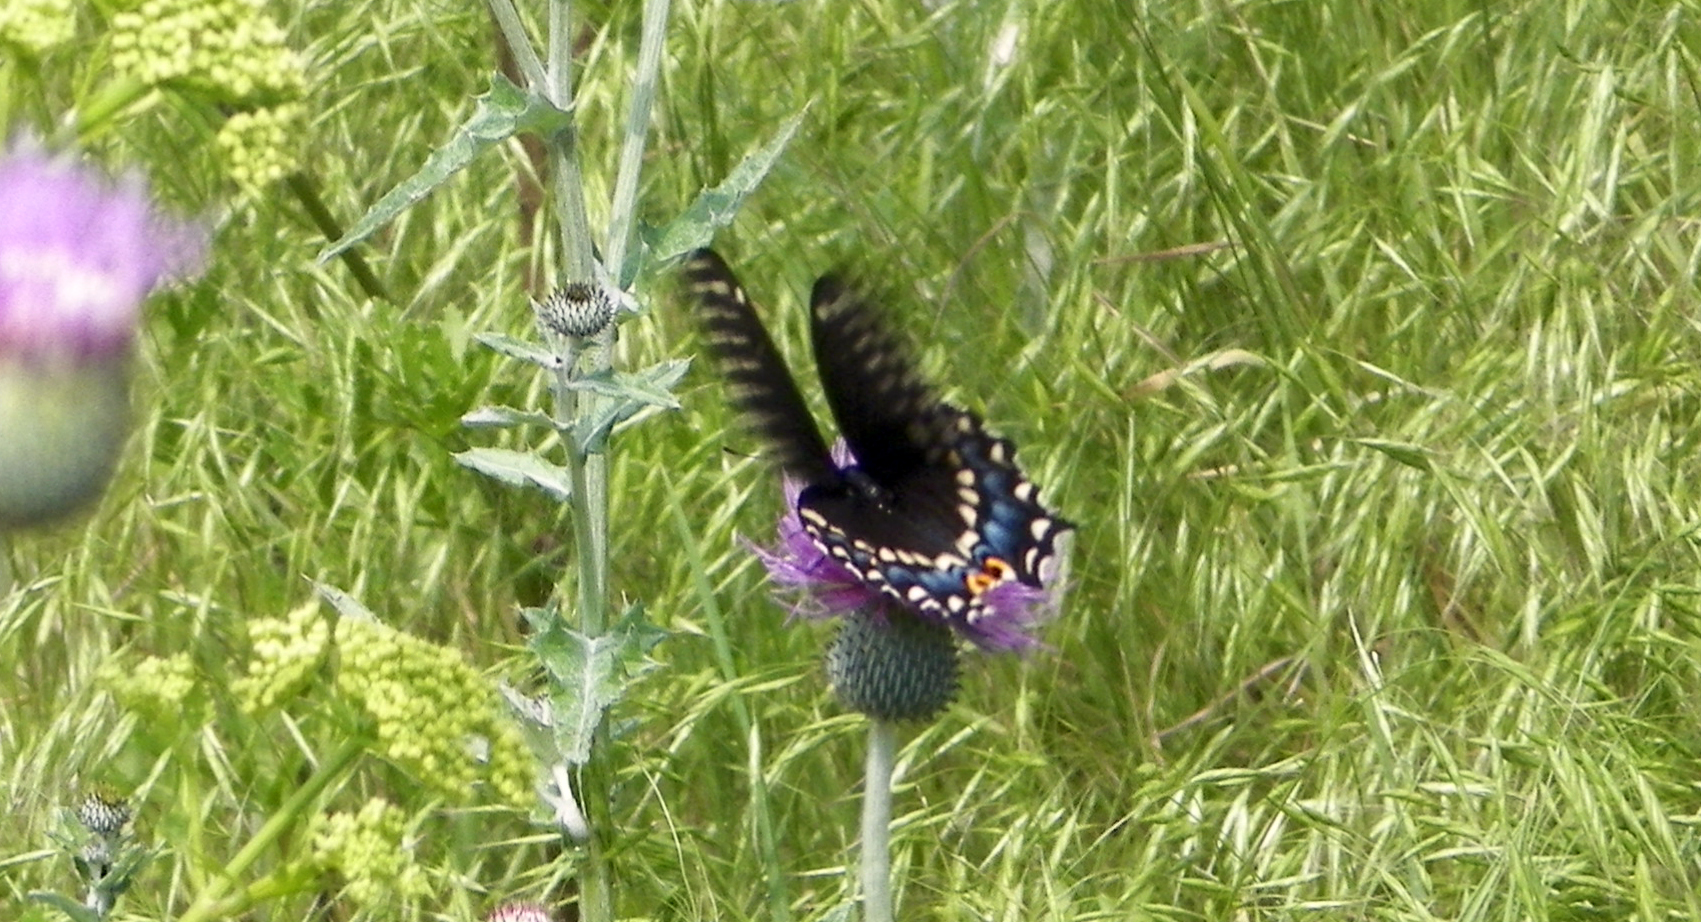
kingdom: Animalia
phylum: Arthropoda
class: Insecta
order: Lepidoptera
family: Papilionidae
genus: Papilio
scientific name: Papilio polyxenes
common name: Black swallowtail
